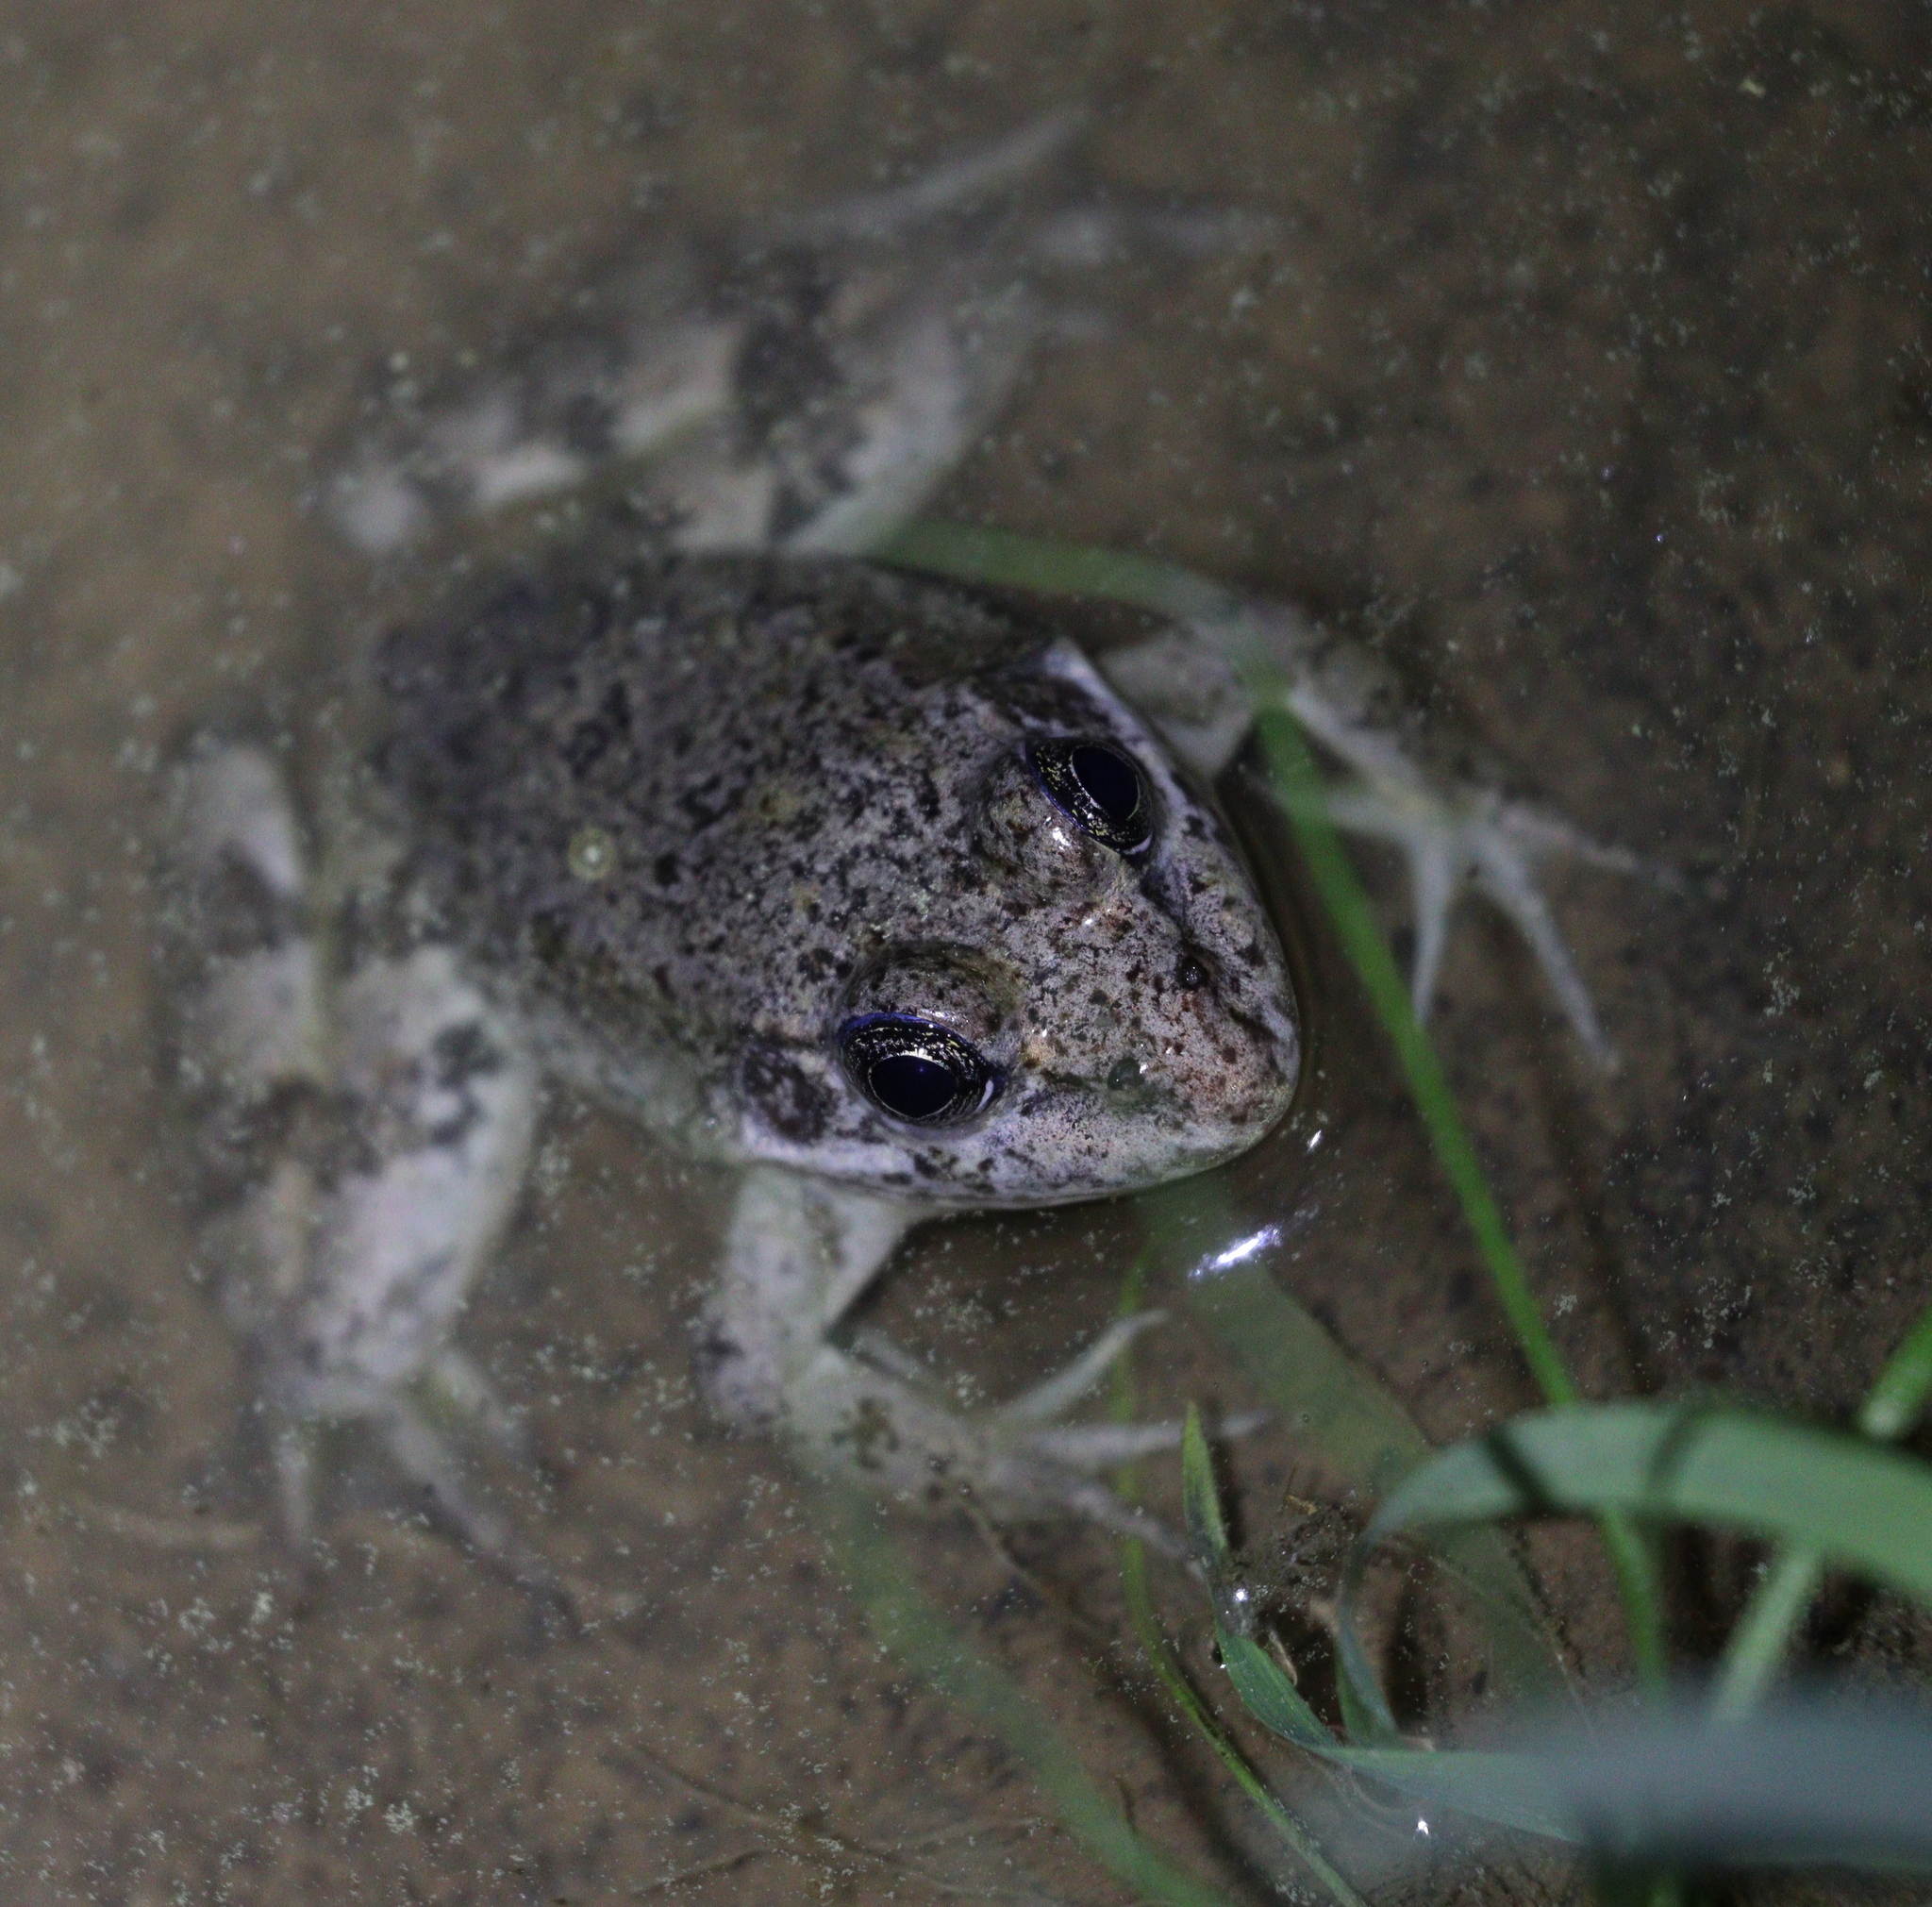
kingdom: Animalia
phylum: Chordata
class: Amphibia
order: Anura
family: Ranidae
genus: Pelophylax
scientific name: Pelophylax ridibundus
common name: Marsh frog
